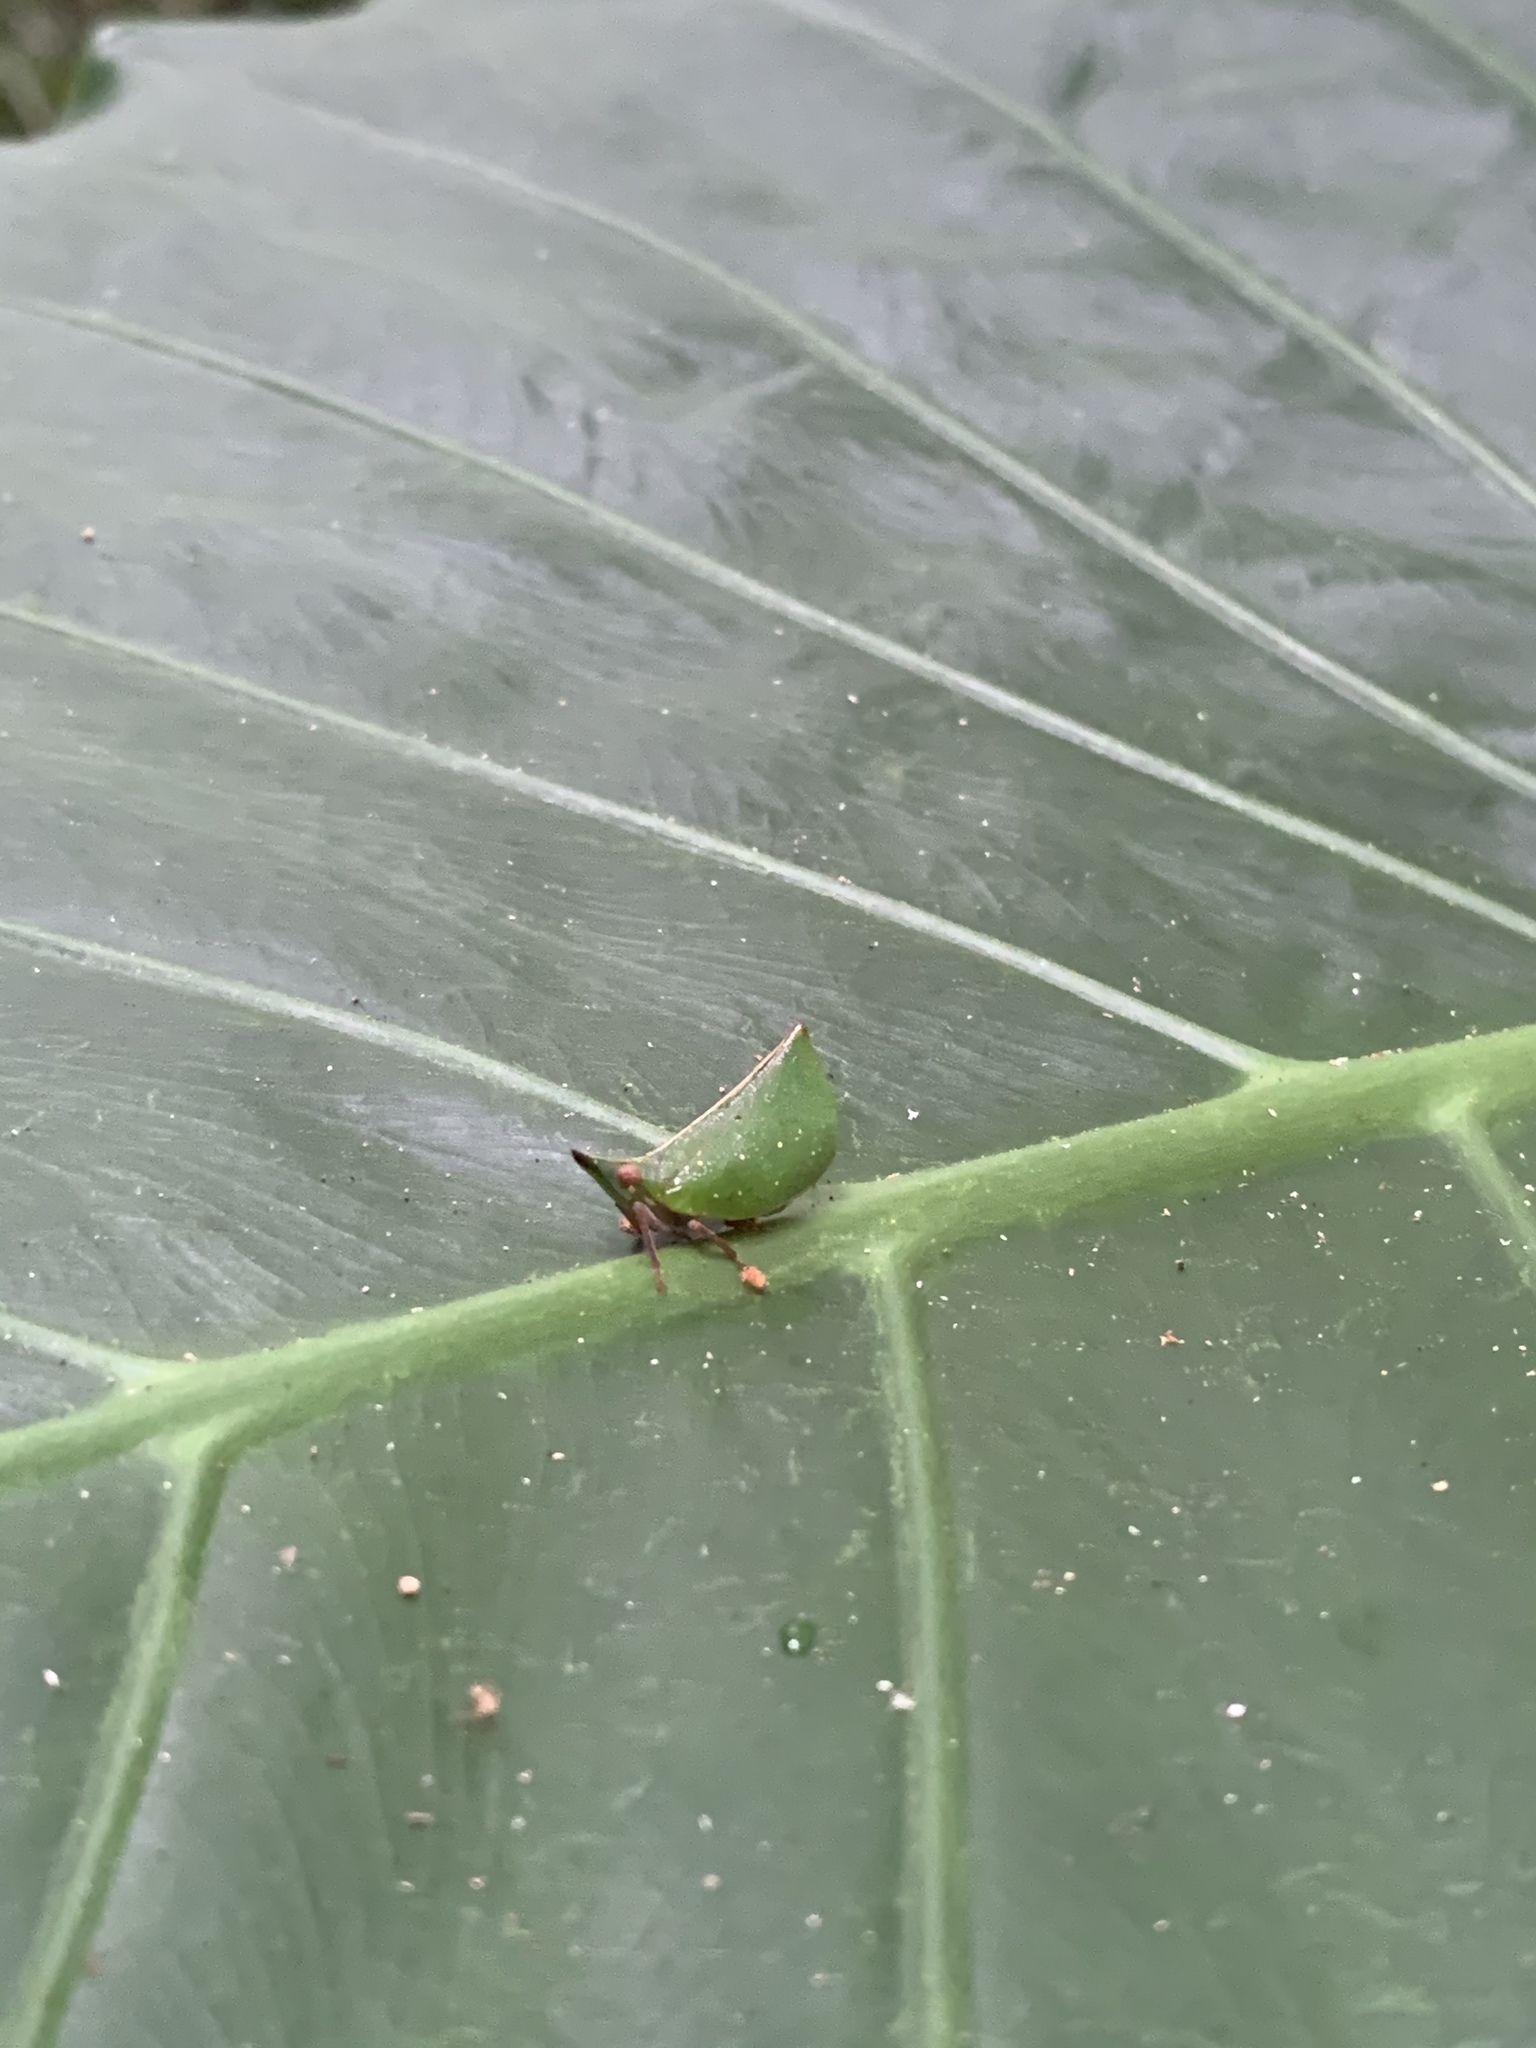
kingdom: Animalia
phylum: Arthropoda
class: Insecta
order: Hemiptera
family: Nogodinidae
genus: Tonga
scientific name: Tonga westwoodi
